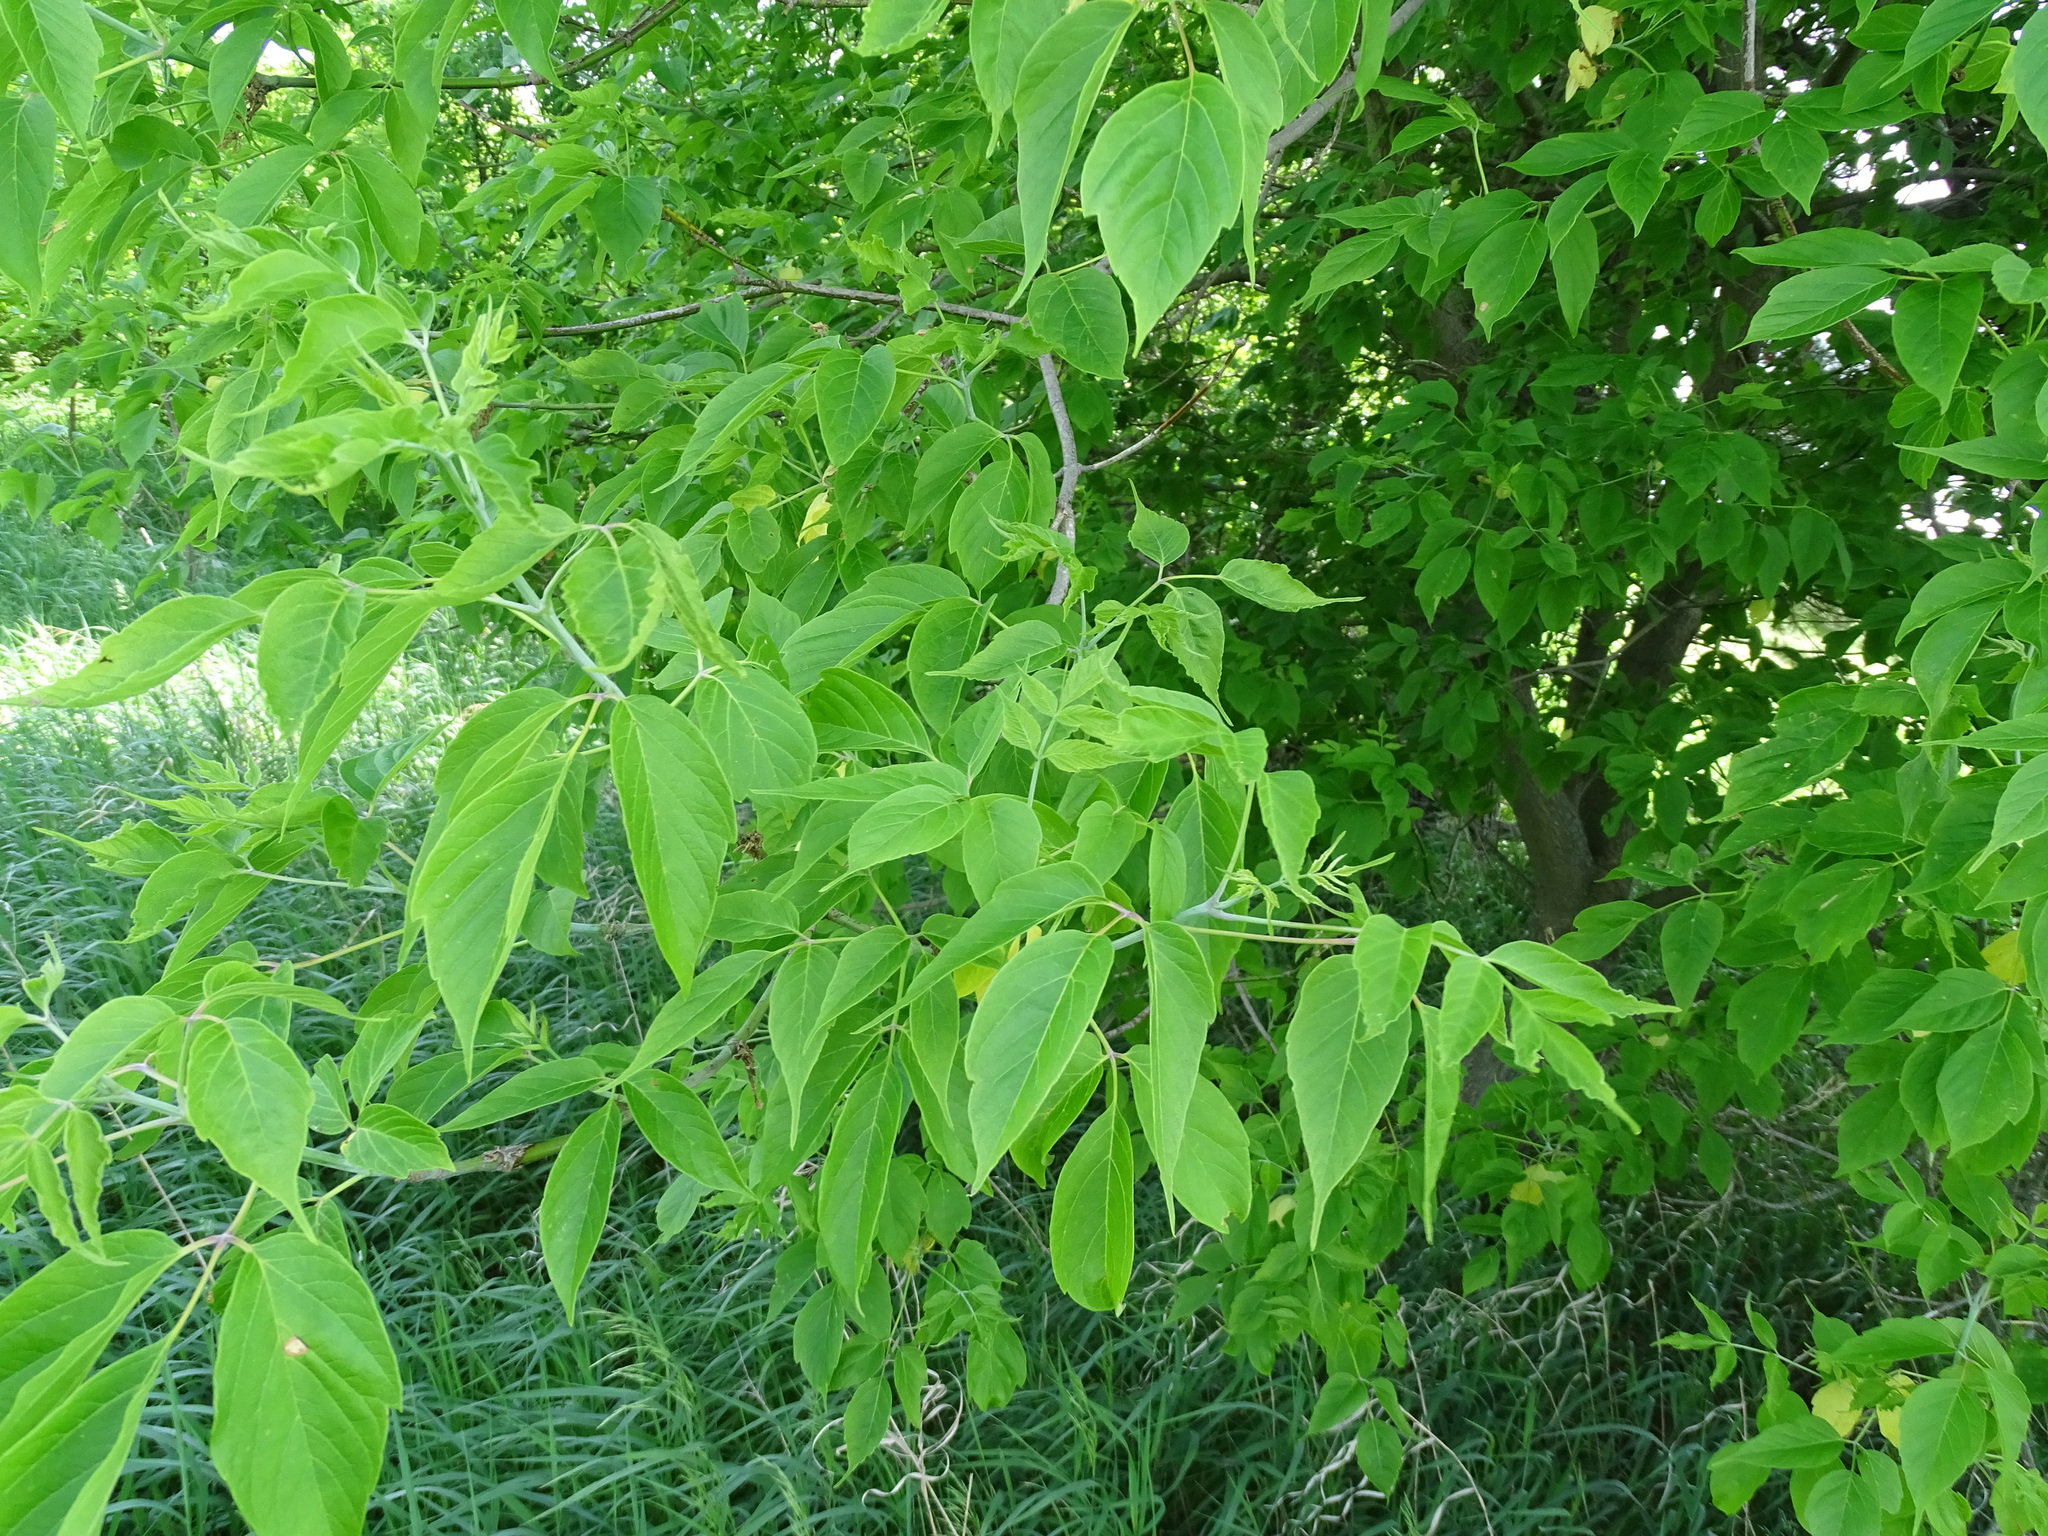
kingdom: Plantae
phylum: Tracheophyta
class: Magnoliopsida
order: Sapindales
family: Sapindaceae
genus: Acer
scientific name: Acer negundo
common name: Ashleaf maple
